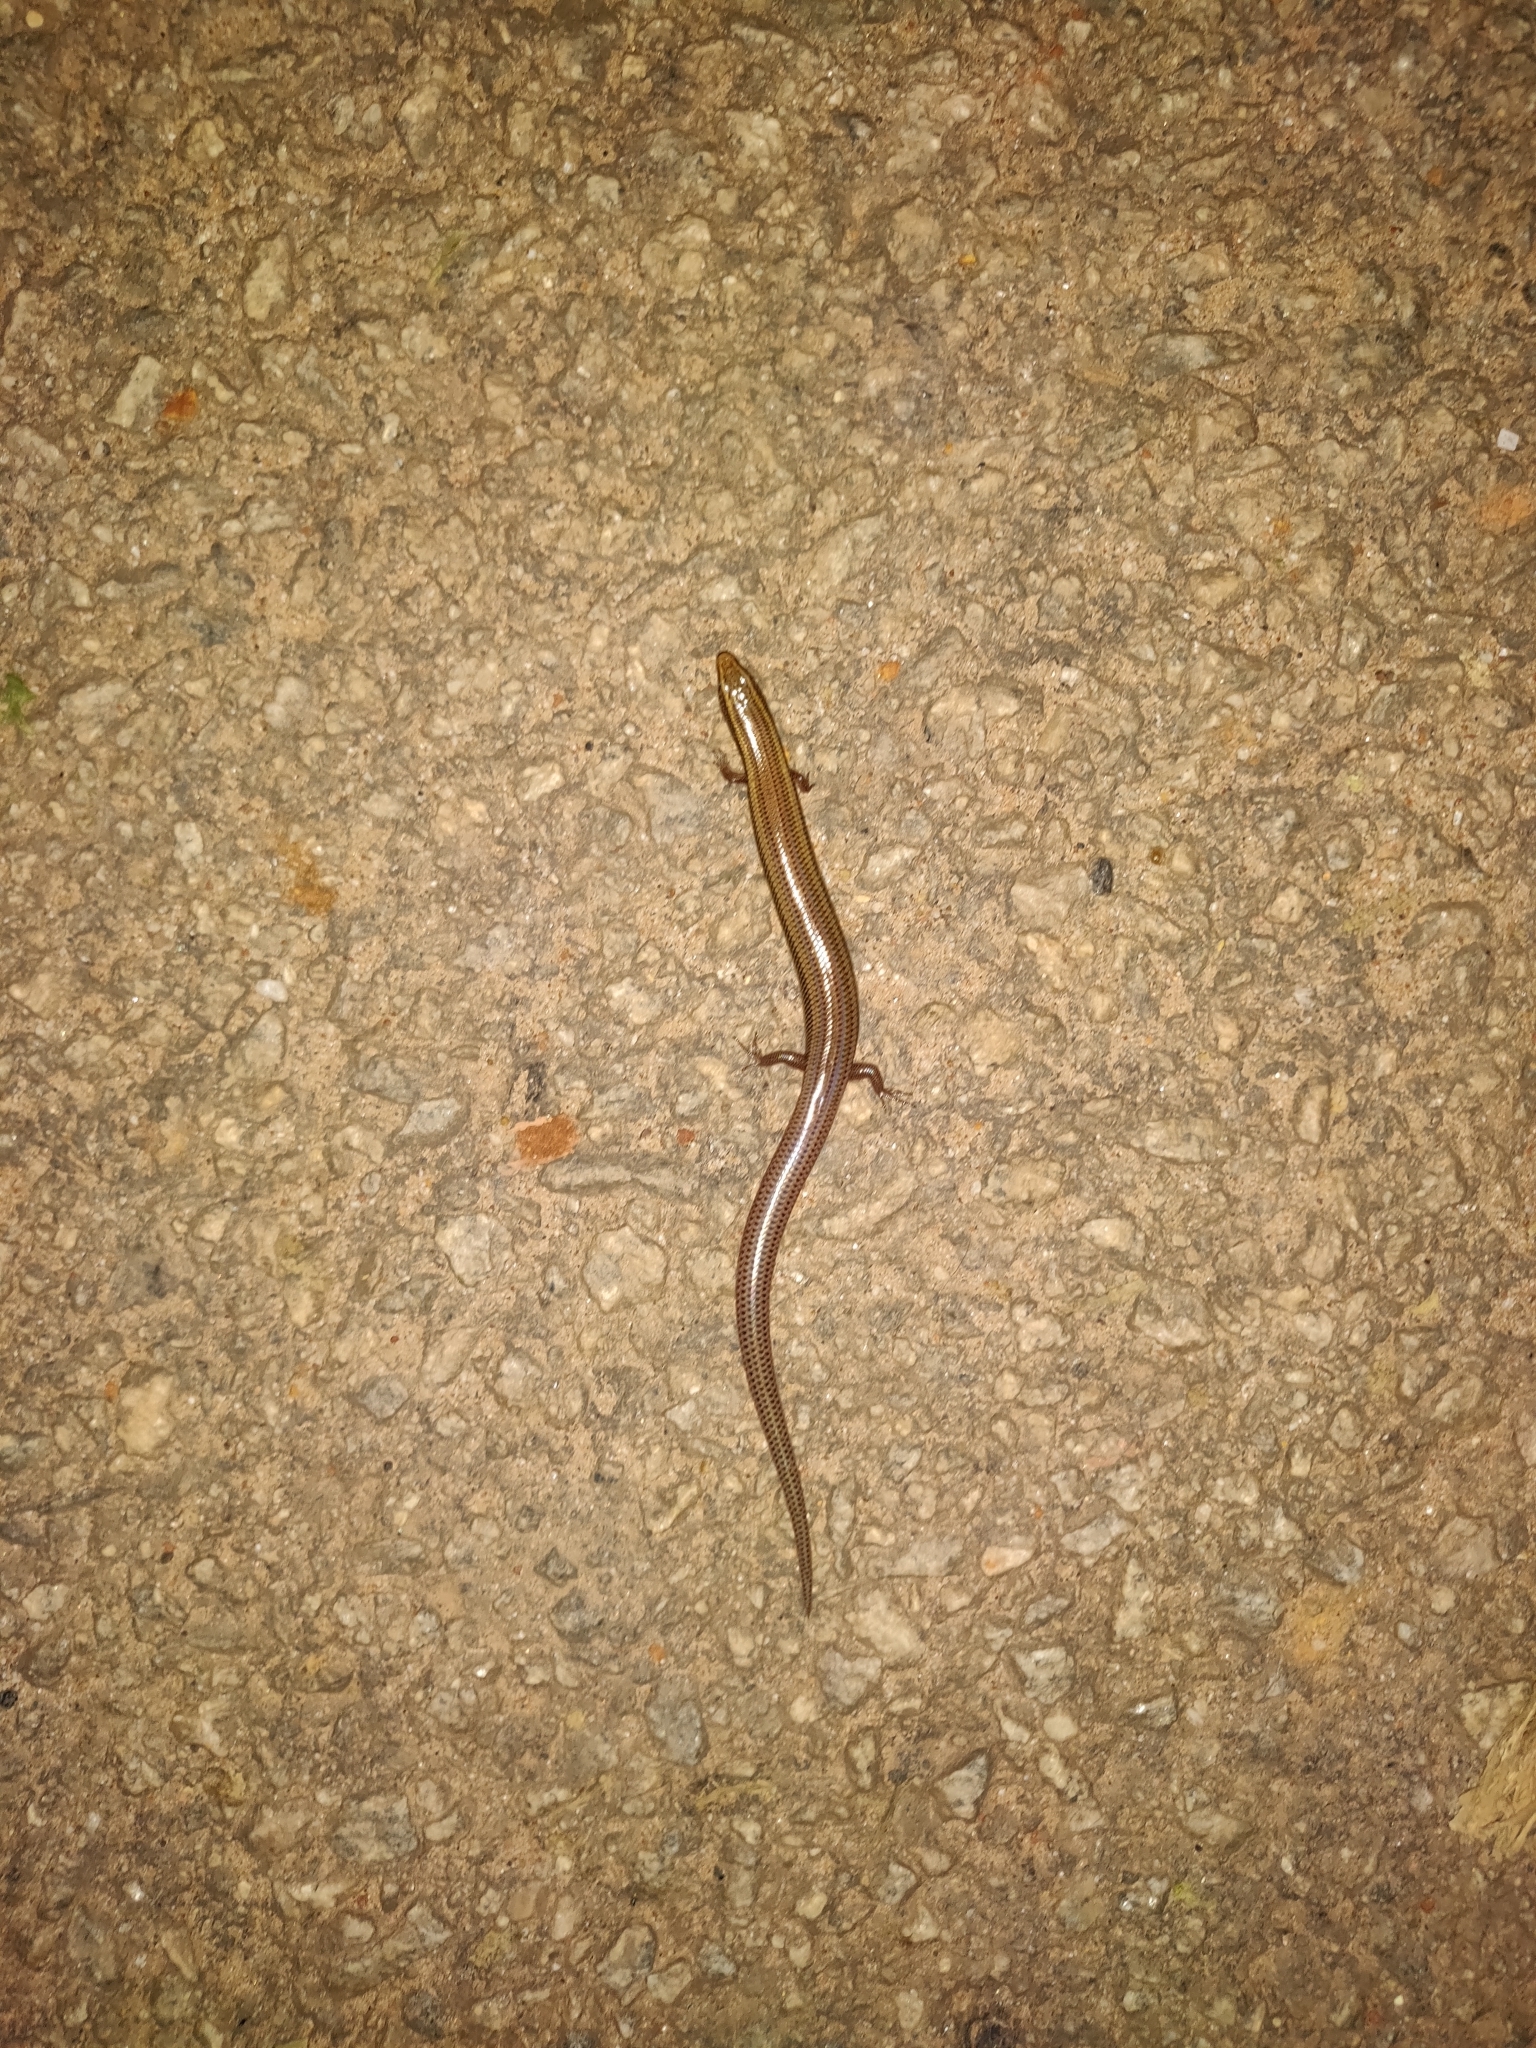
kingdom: Animalia
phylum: Chordata
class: Squamata
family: Scincidae
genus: Riopa
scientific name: Riopa punctata
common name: Common dotted garden skink
